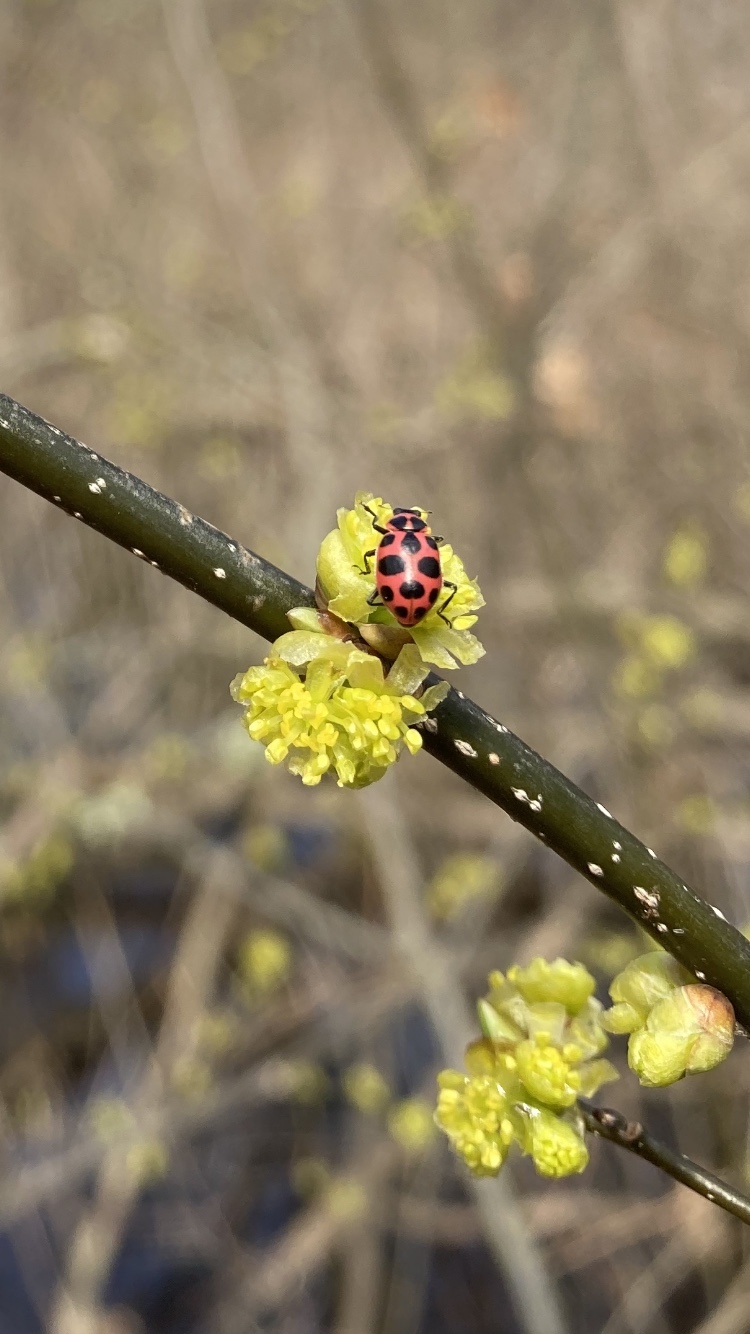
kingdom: Animalia
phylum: Arthropoda
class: Insecta
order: Coleoptera
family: Coccinellidae
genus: Coleomegilla
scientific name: Coleomegilla maculata
